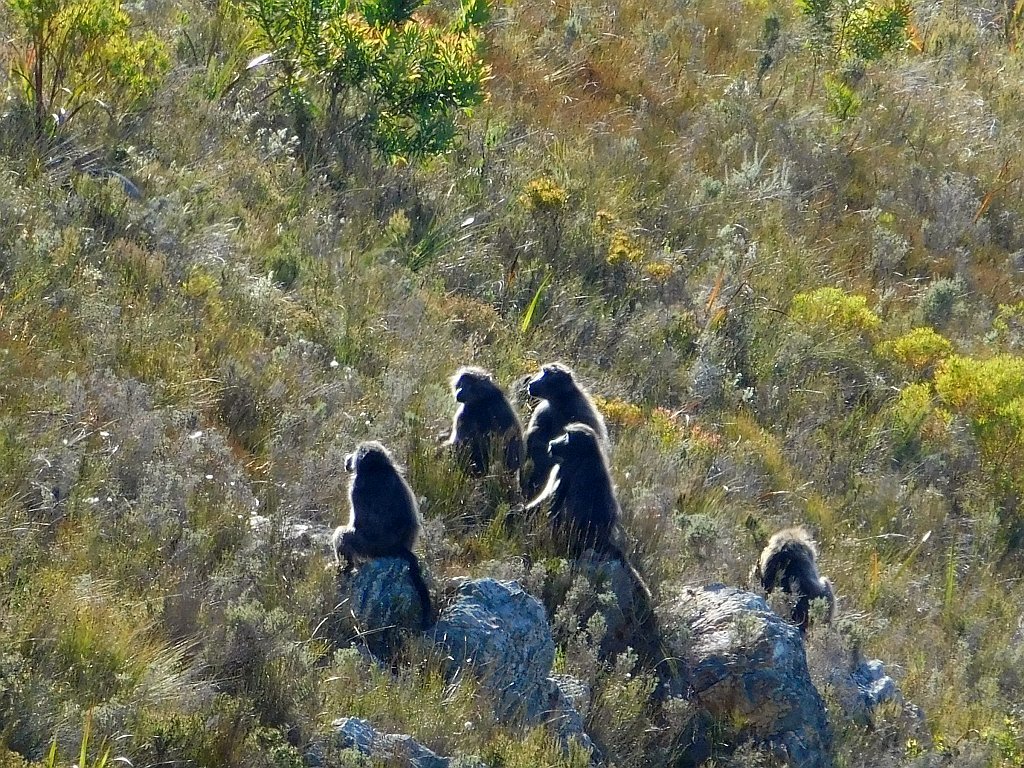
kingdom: Animalia
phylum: Chordata
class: Mammalia
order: Primates
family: Cercopithecidae
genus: Papio
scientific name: Papio ursinus
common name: Chacma baboon
